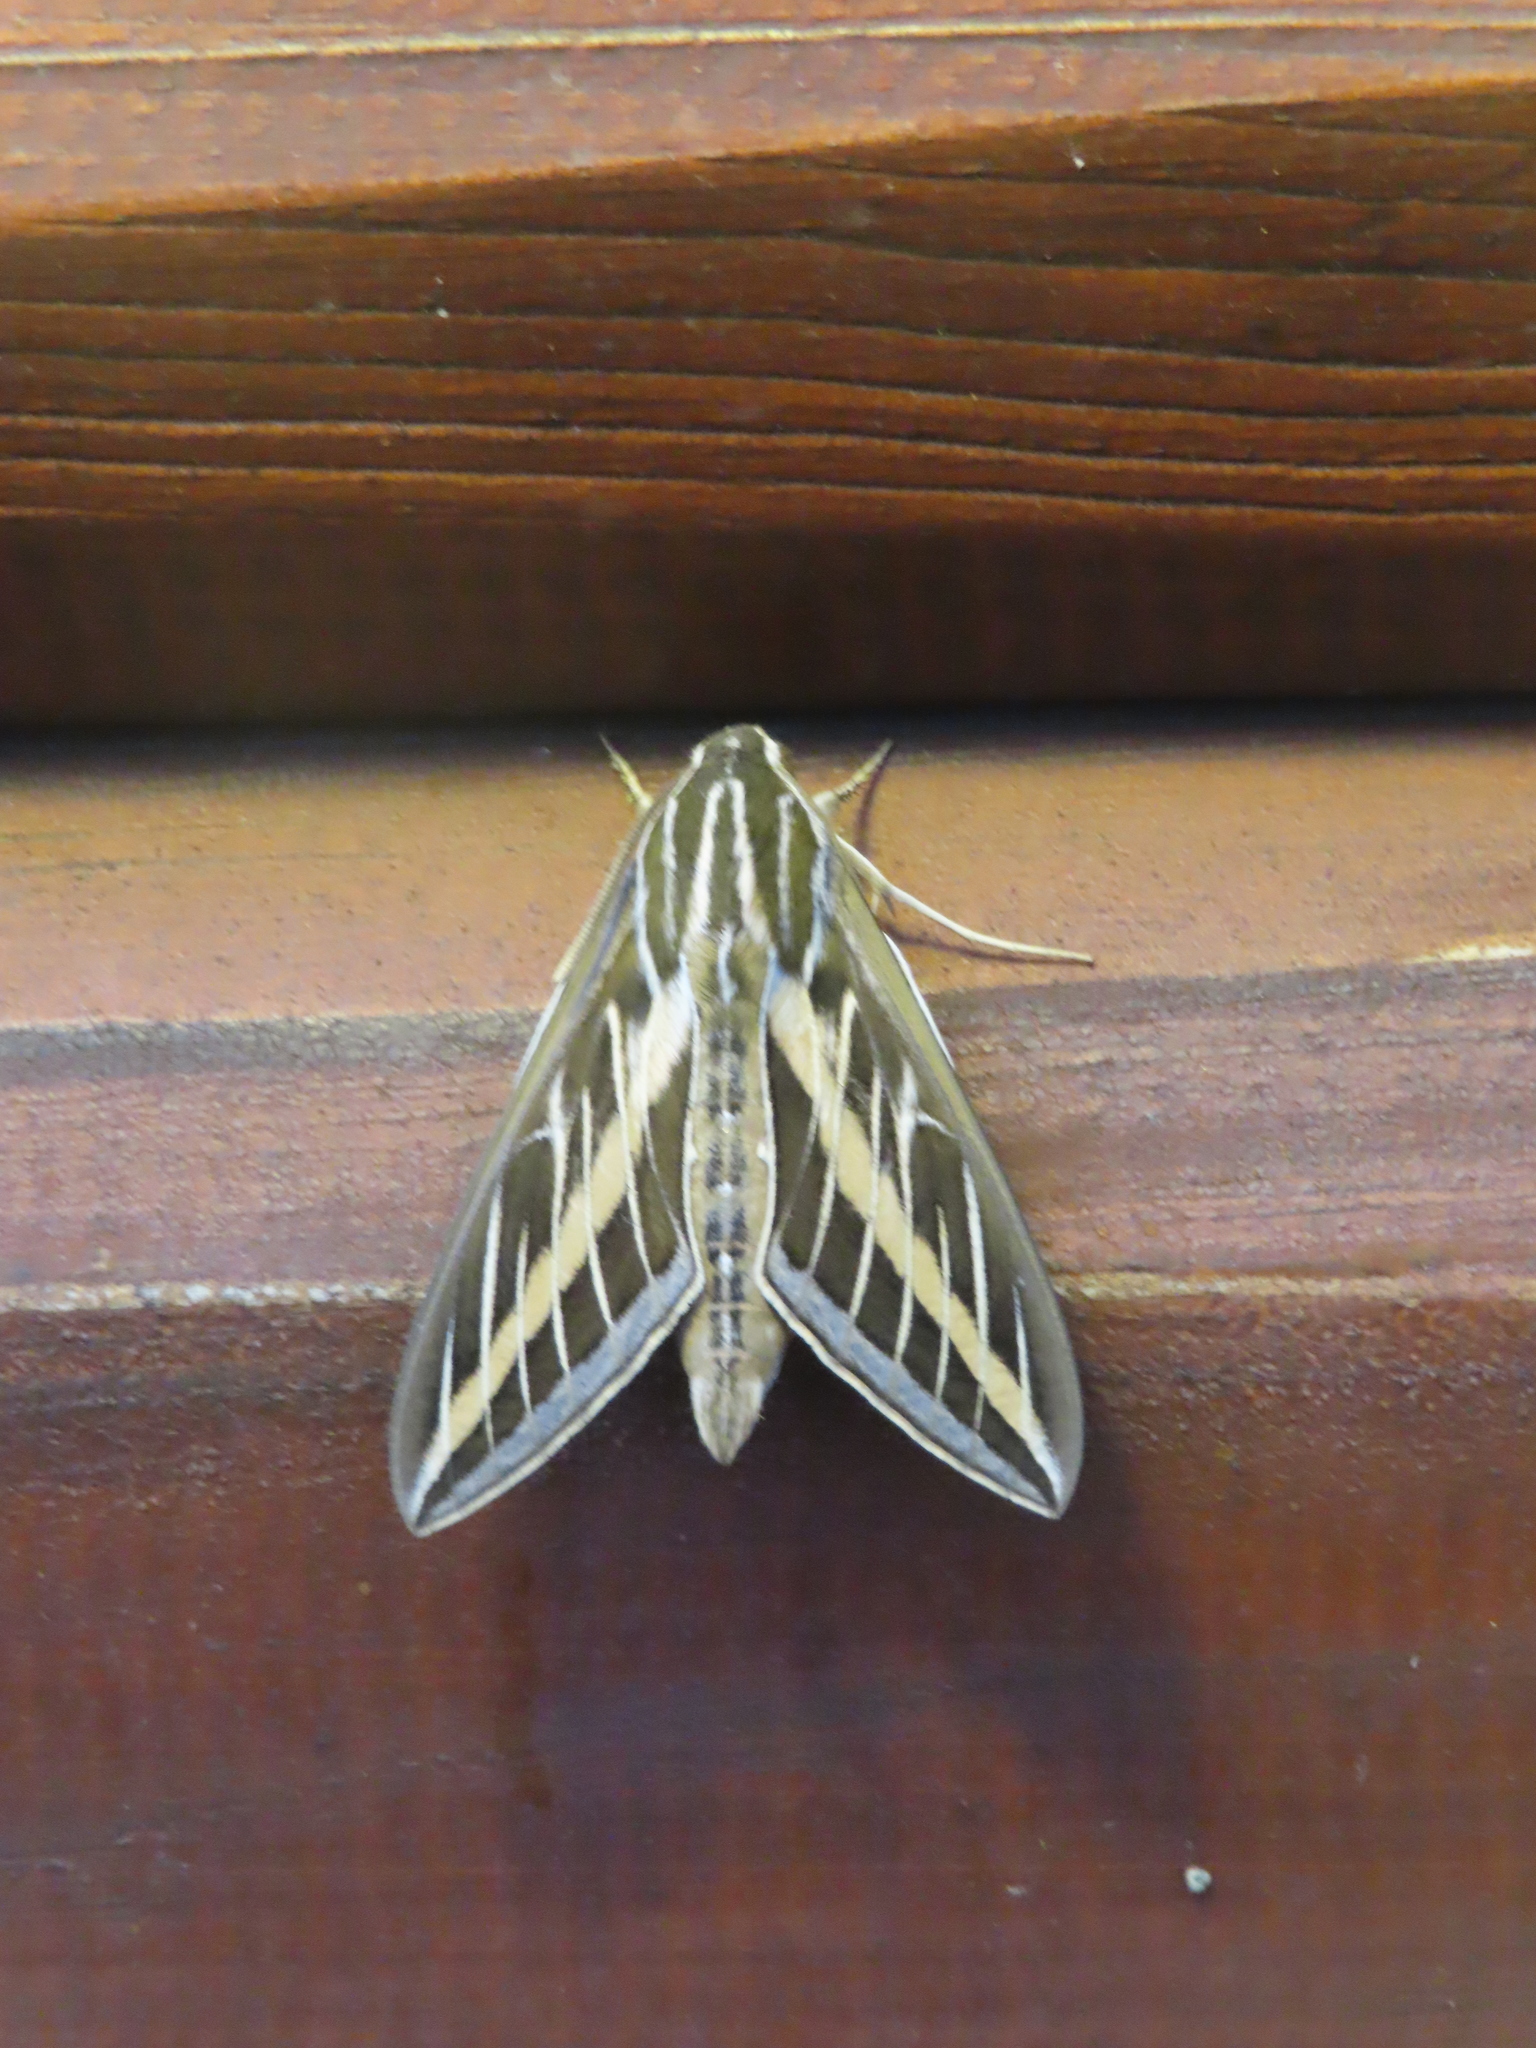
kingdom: Animalia
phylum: Arthropoda
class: Insecta
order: Lepidoptera
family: Sphingidae
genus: Hyles
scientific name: Hyles lineata
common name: White-lined sphinx
